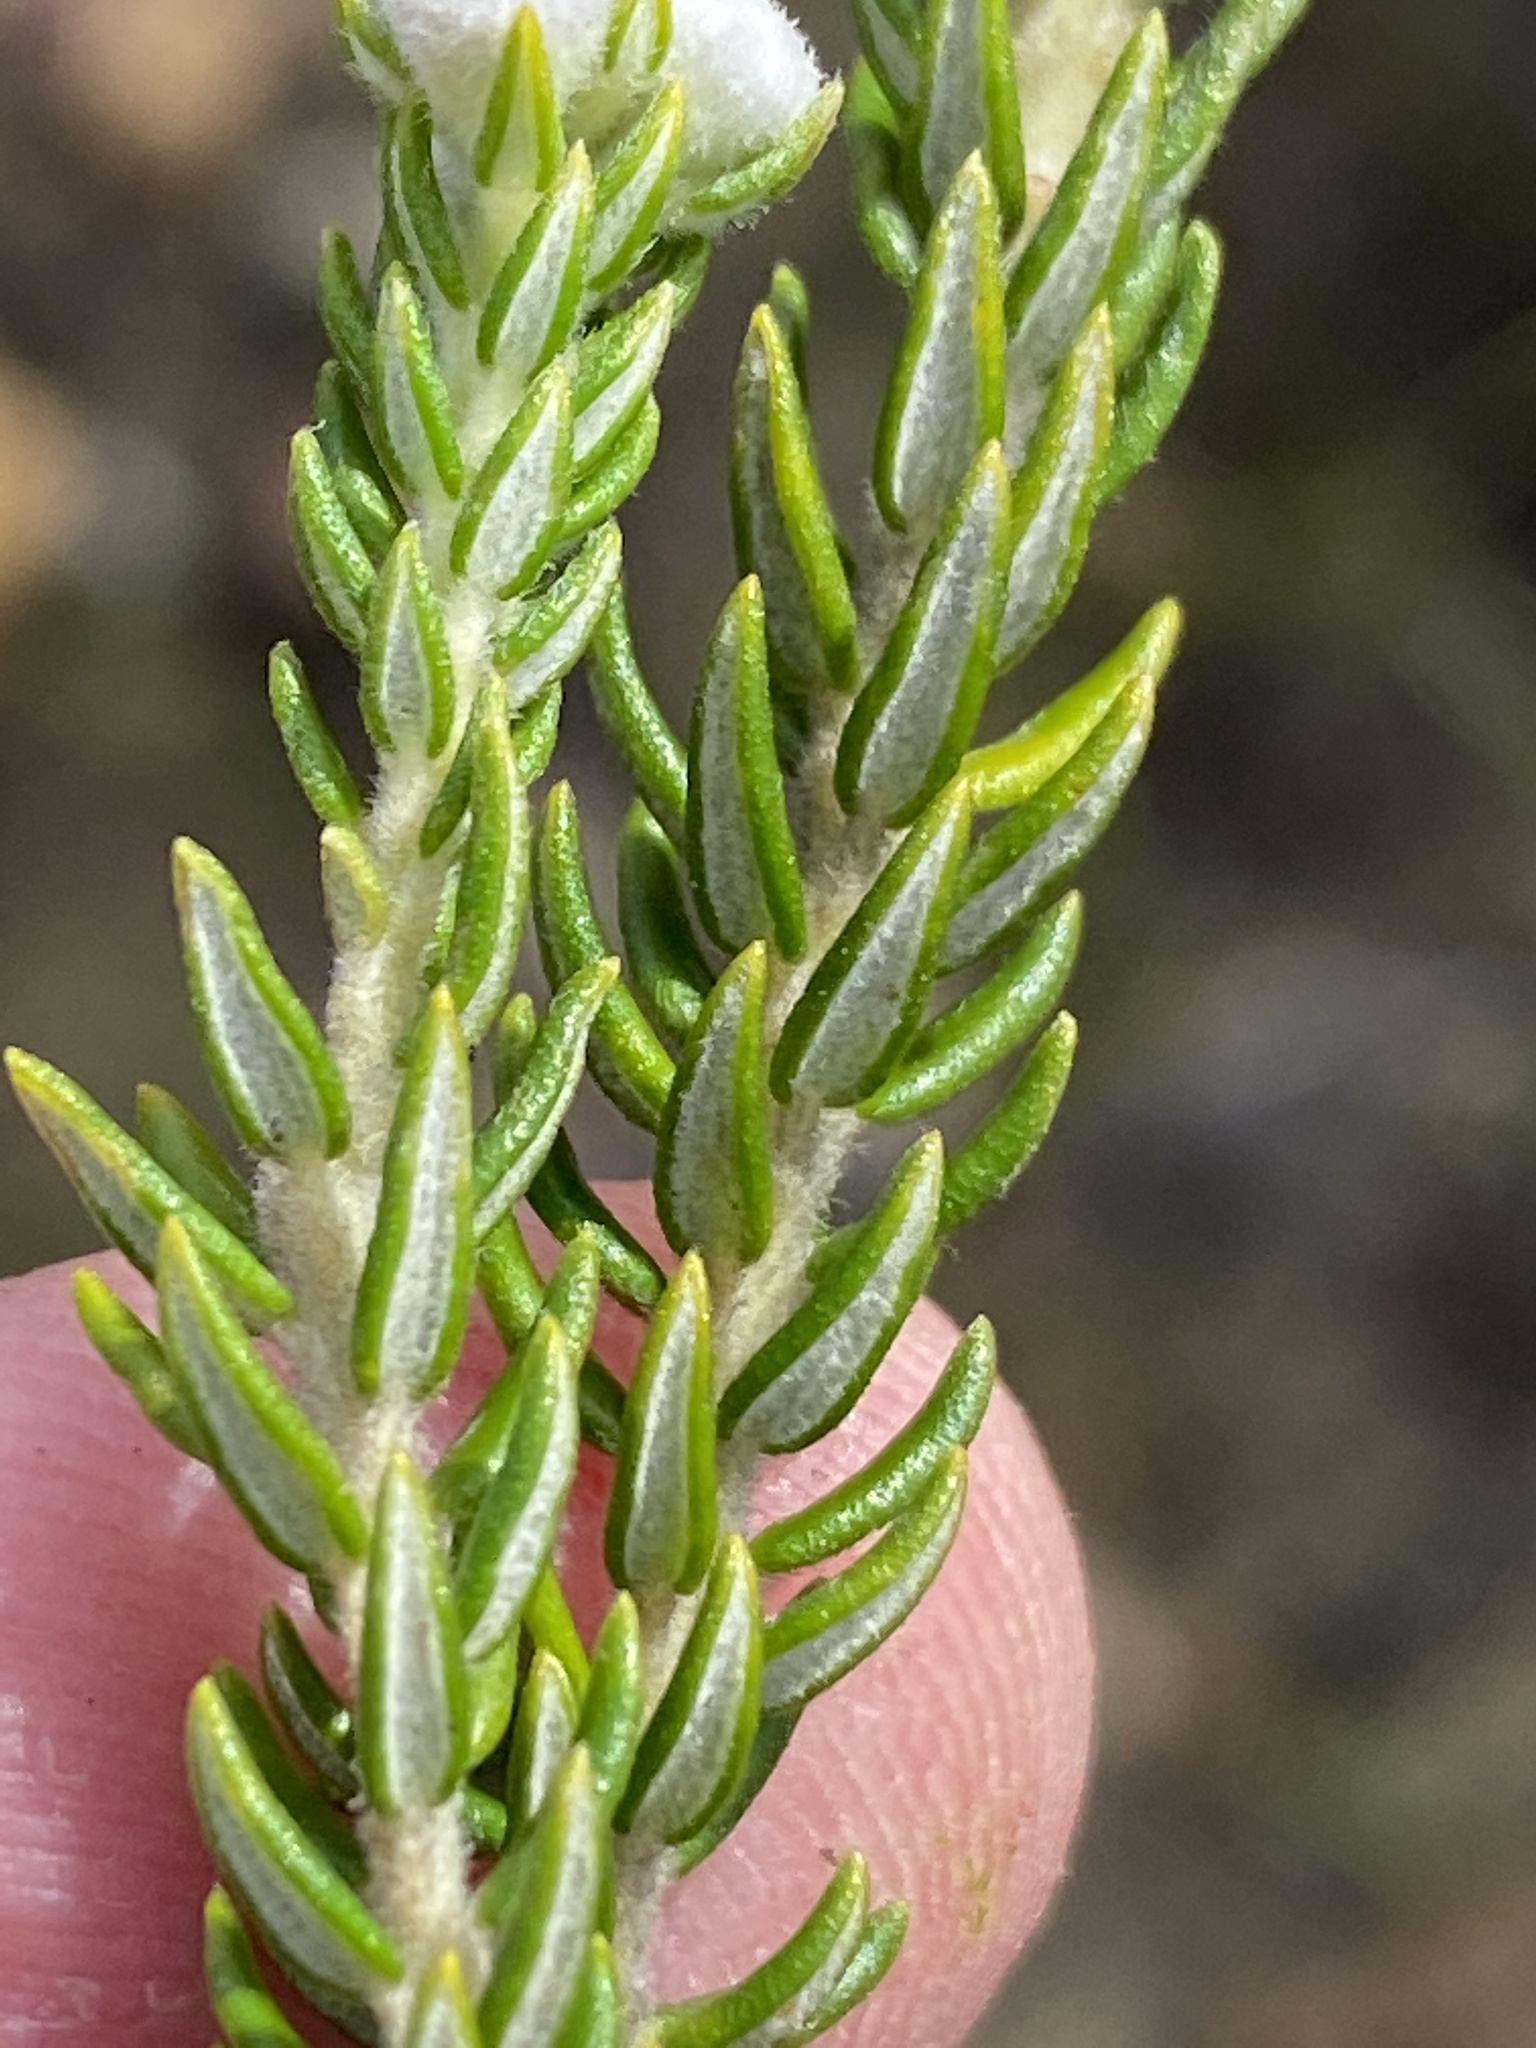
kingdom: Plantae
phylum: Tracheophyta
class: Magnoliopsida
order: Rosales
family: Rhamnaceae
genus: Phylica
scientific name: Phylica purpurea
